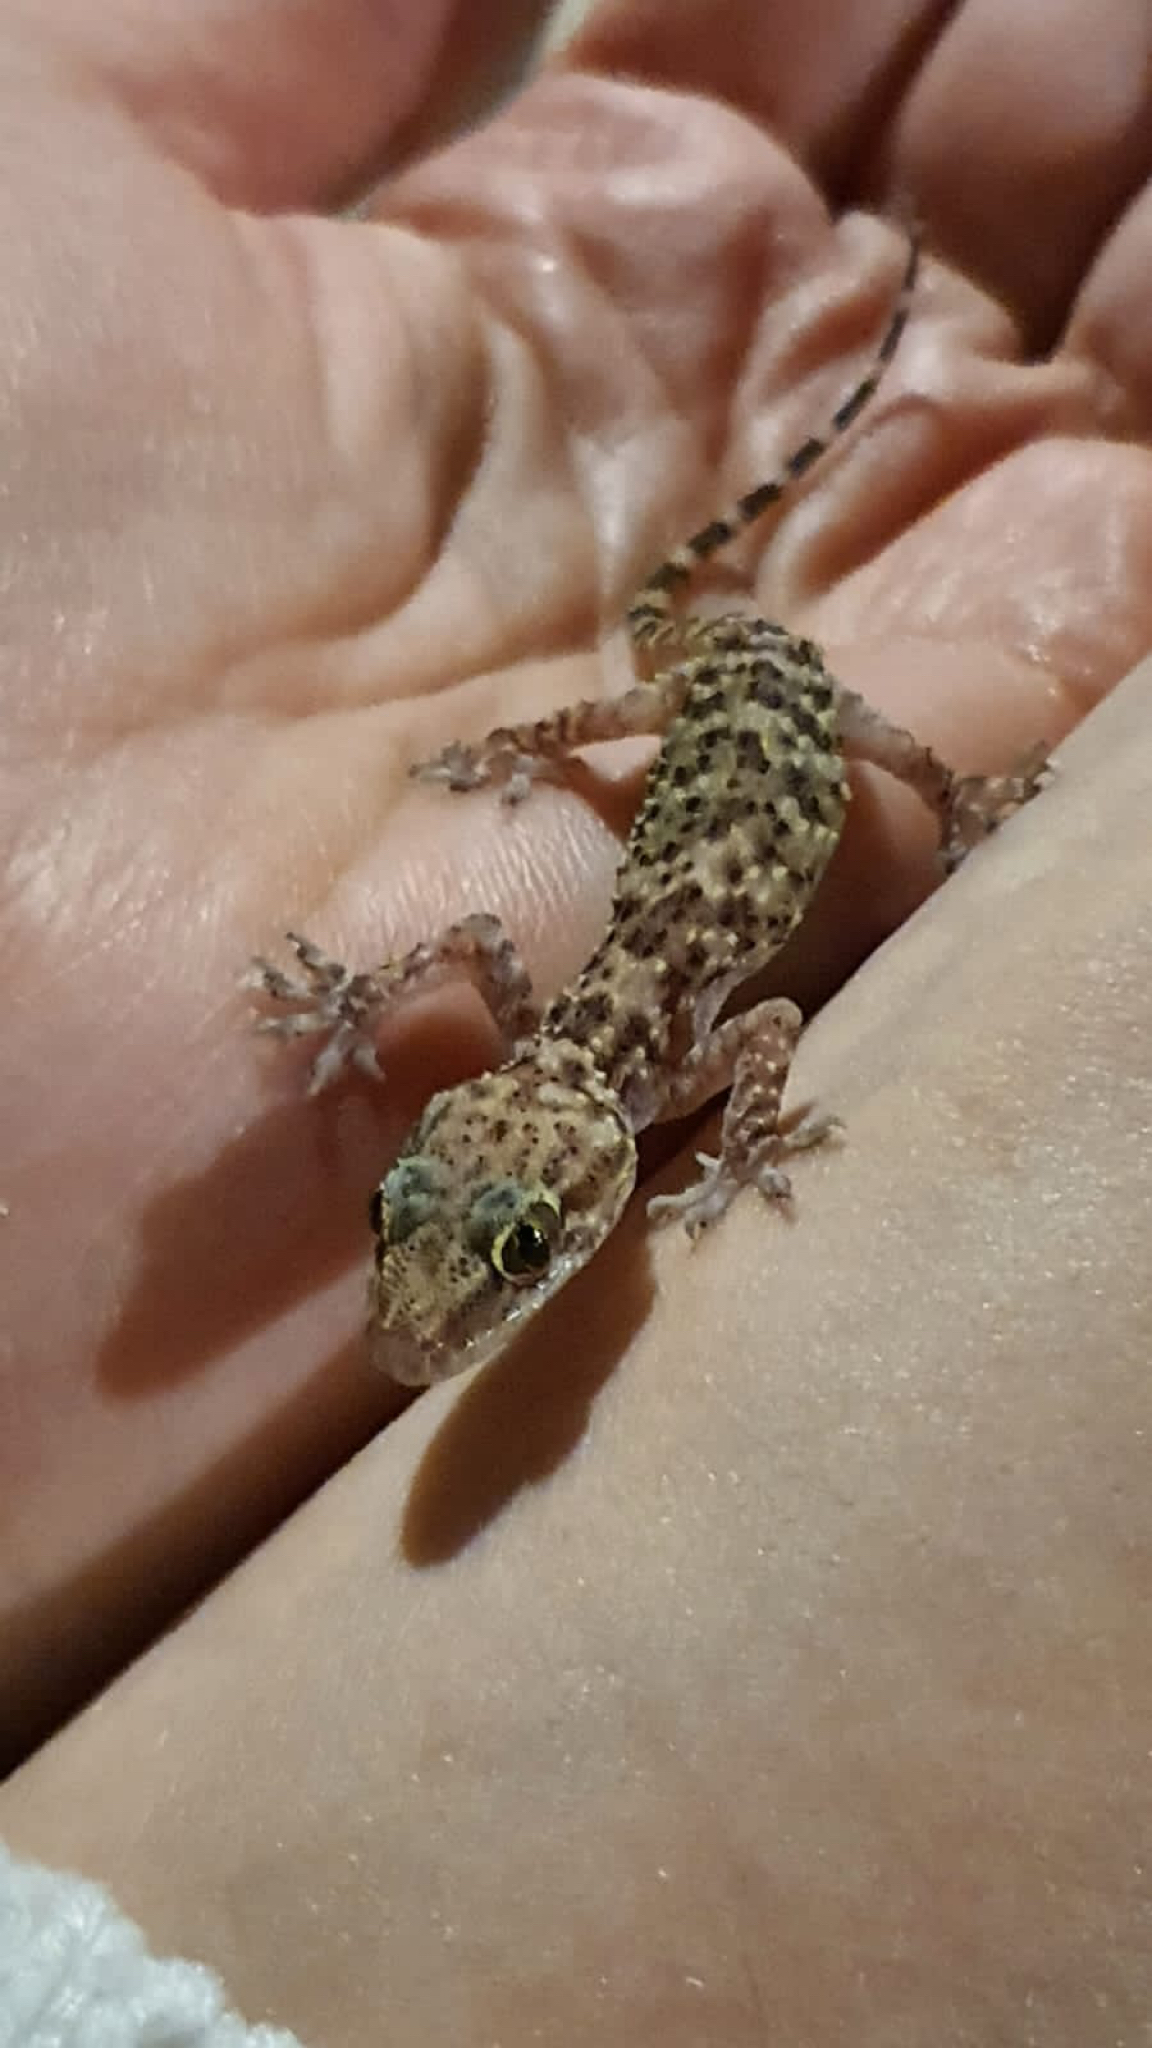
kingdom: Animalia
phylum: Chordata
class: Squamata
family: Gekkonidae
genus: Hemidactylus
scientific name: Hemidactylus turcicus
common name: Turkish gecko
